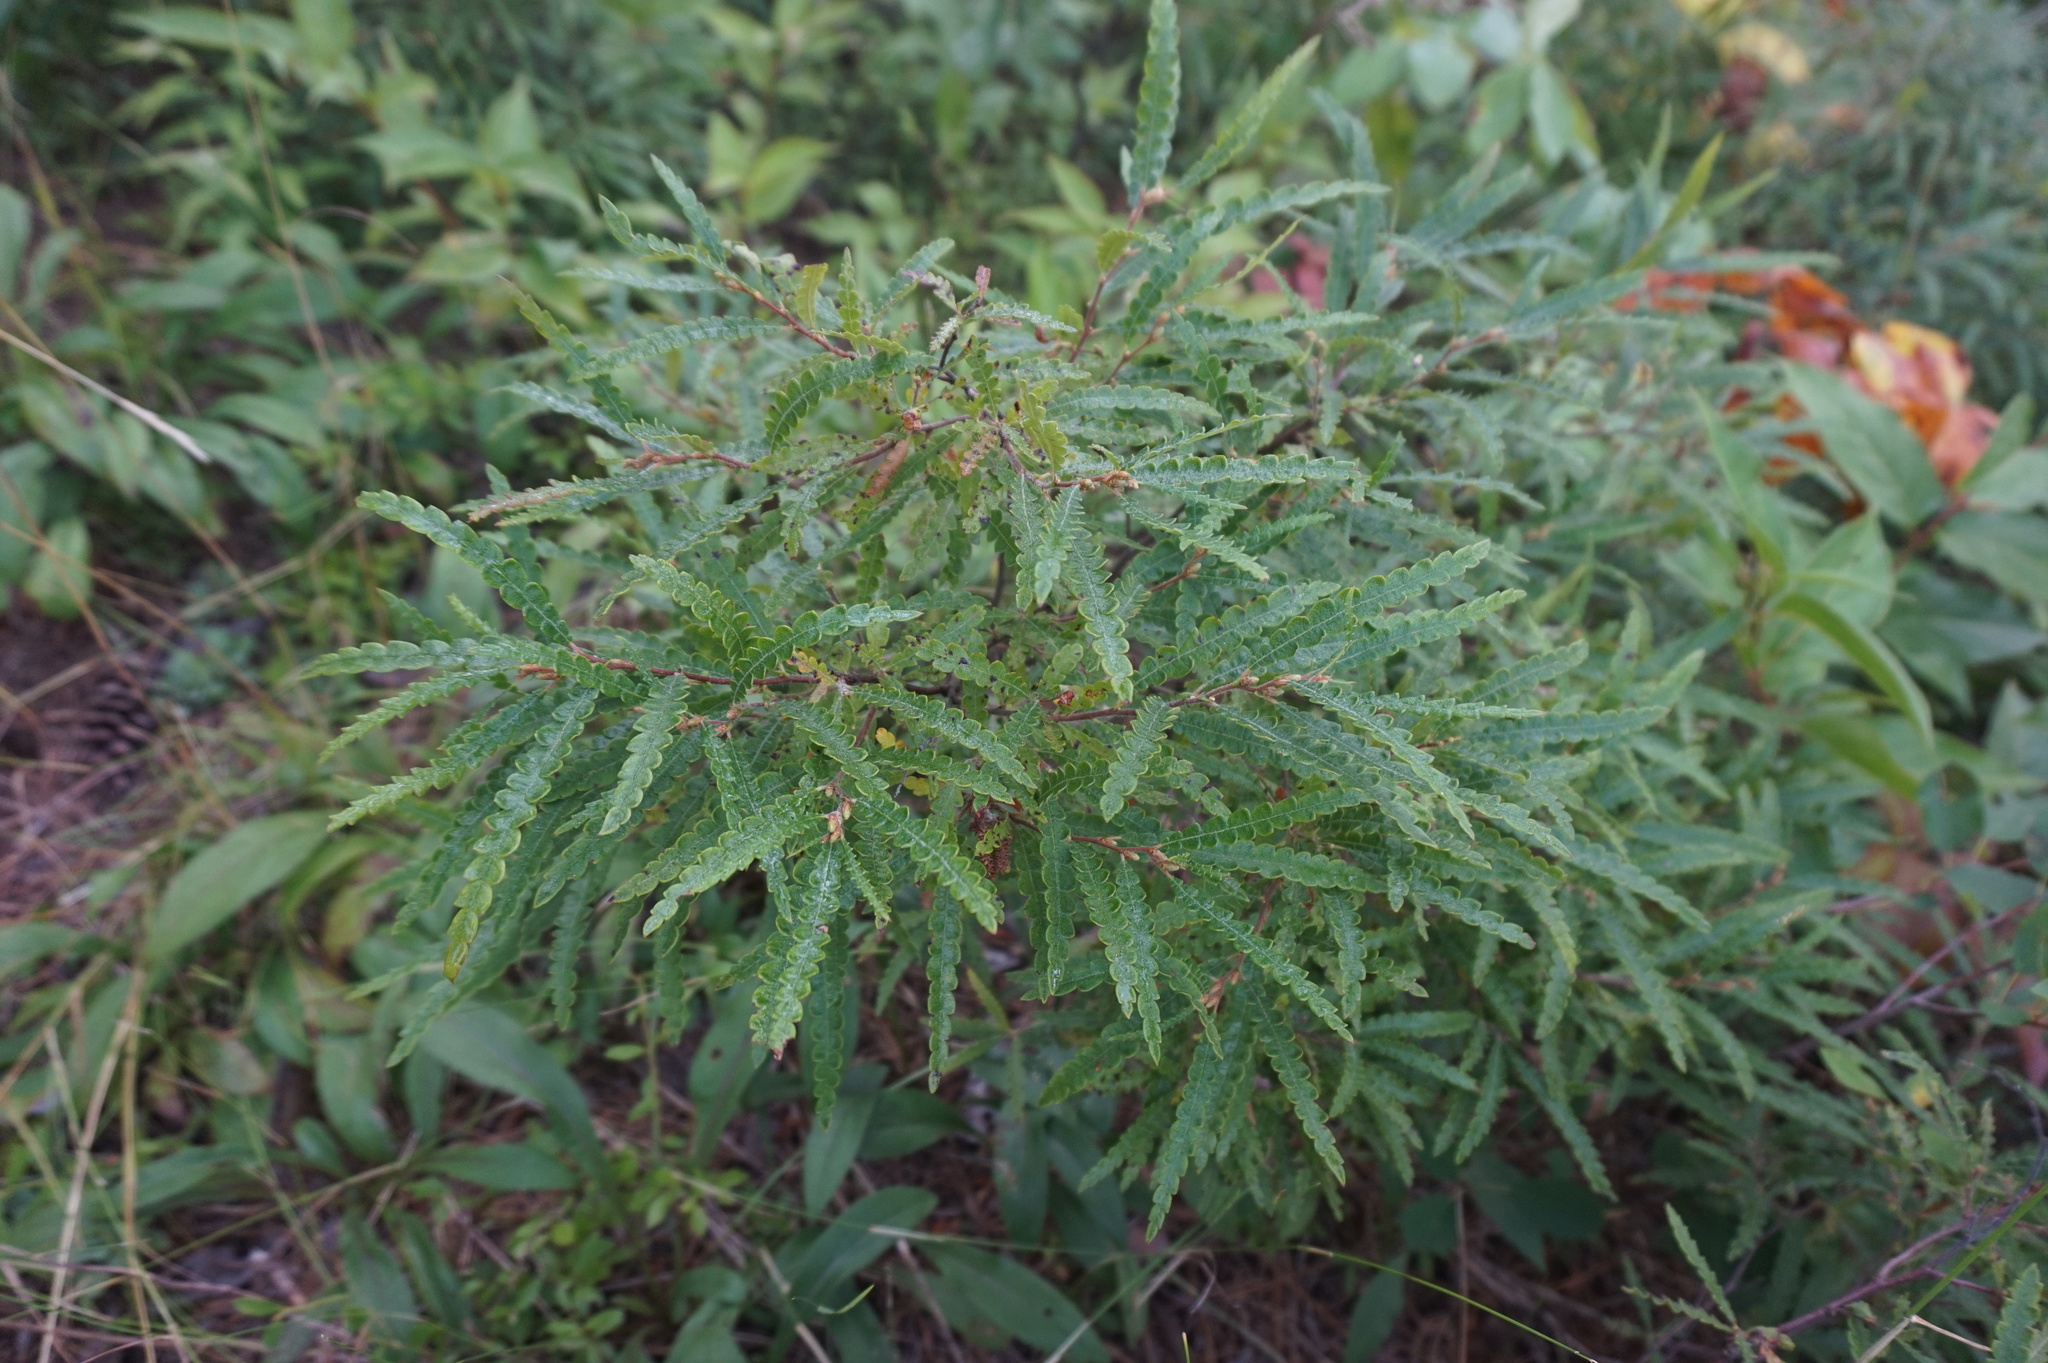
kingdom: Plantae
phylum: Tracheophyta
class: Magnoliopsida
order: Fagales
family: Myricaceae
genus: Comptonia
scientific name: Comptonia peregrina
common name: Sweet-fern
